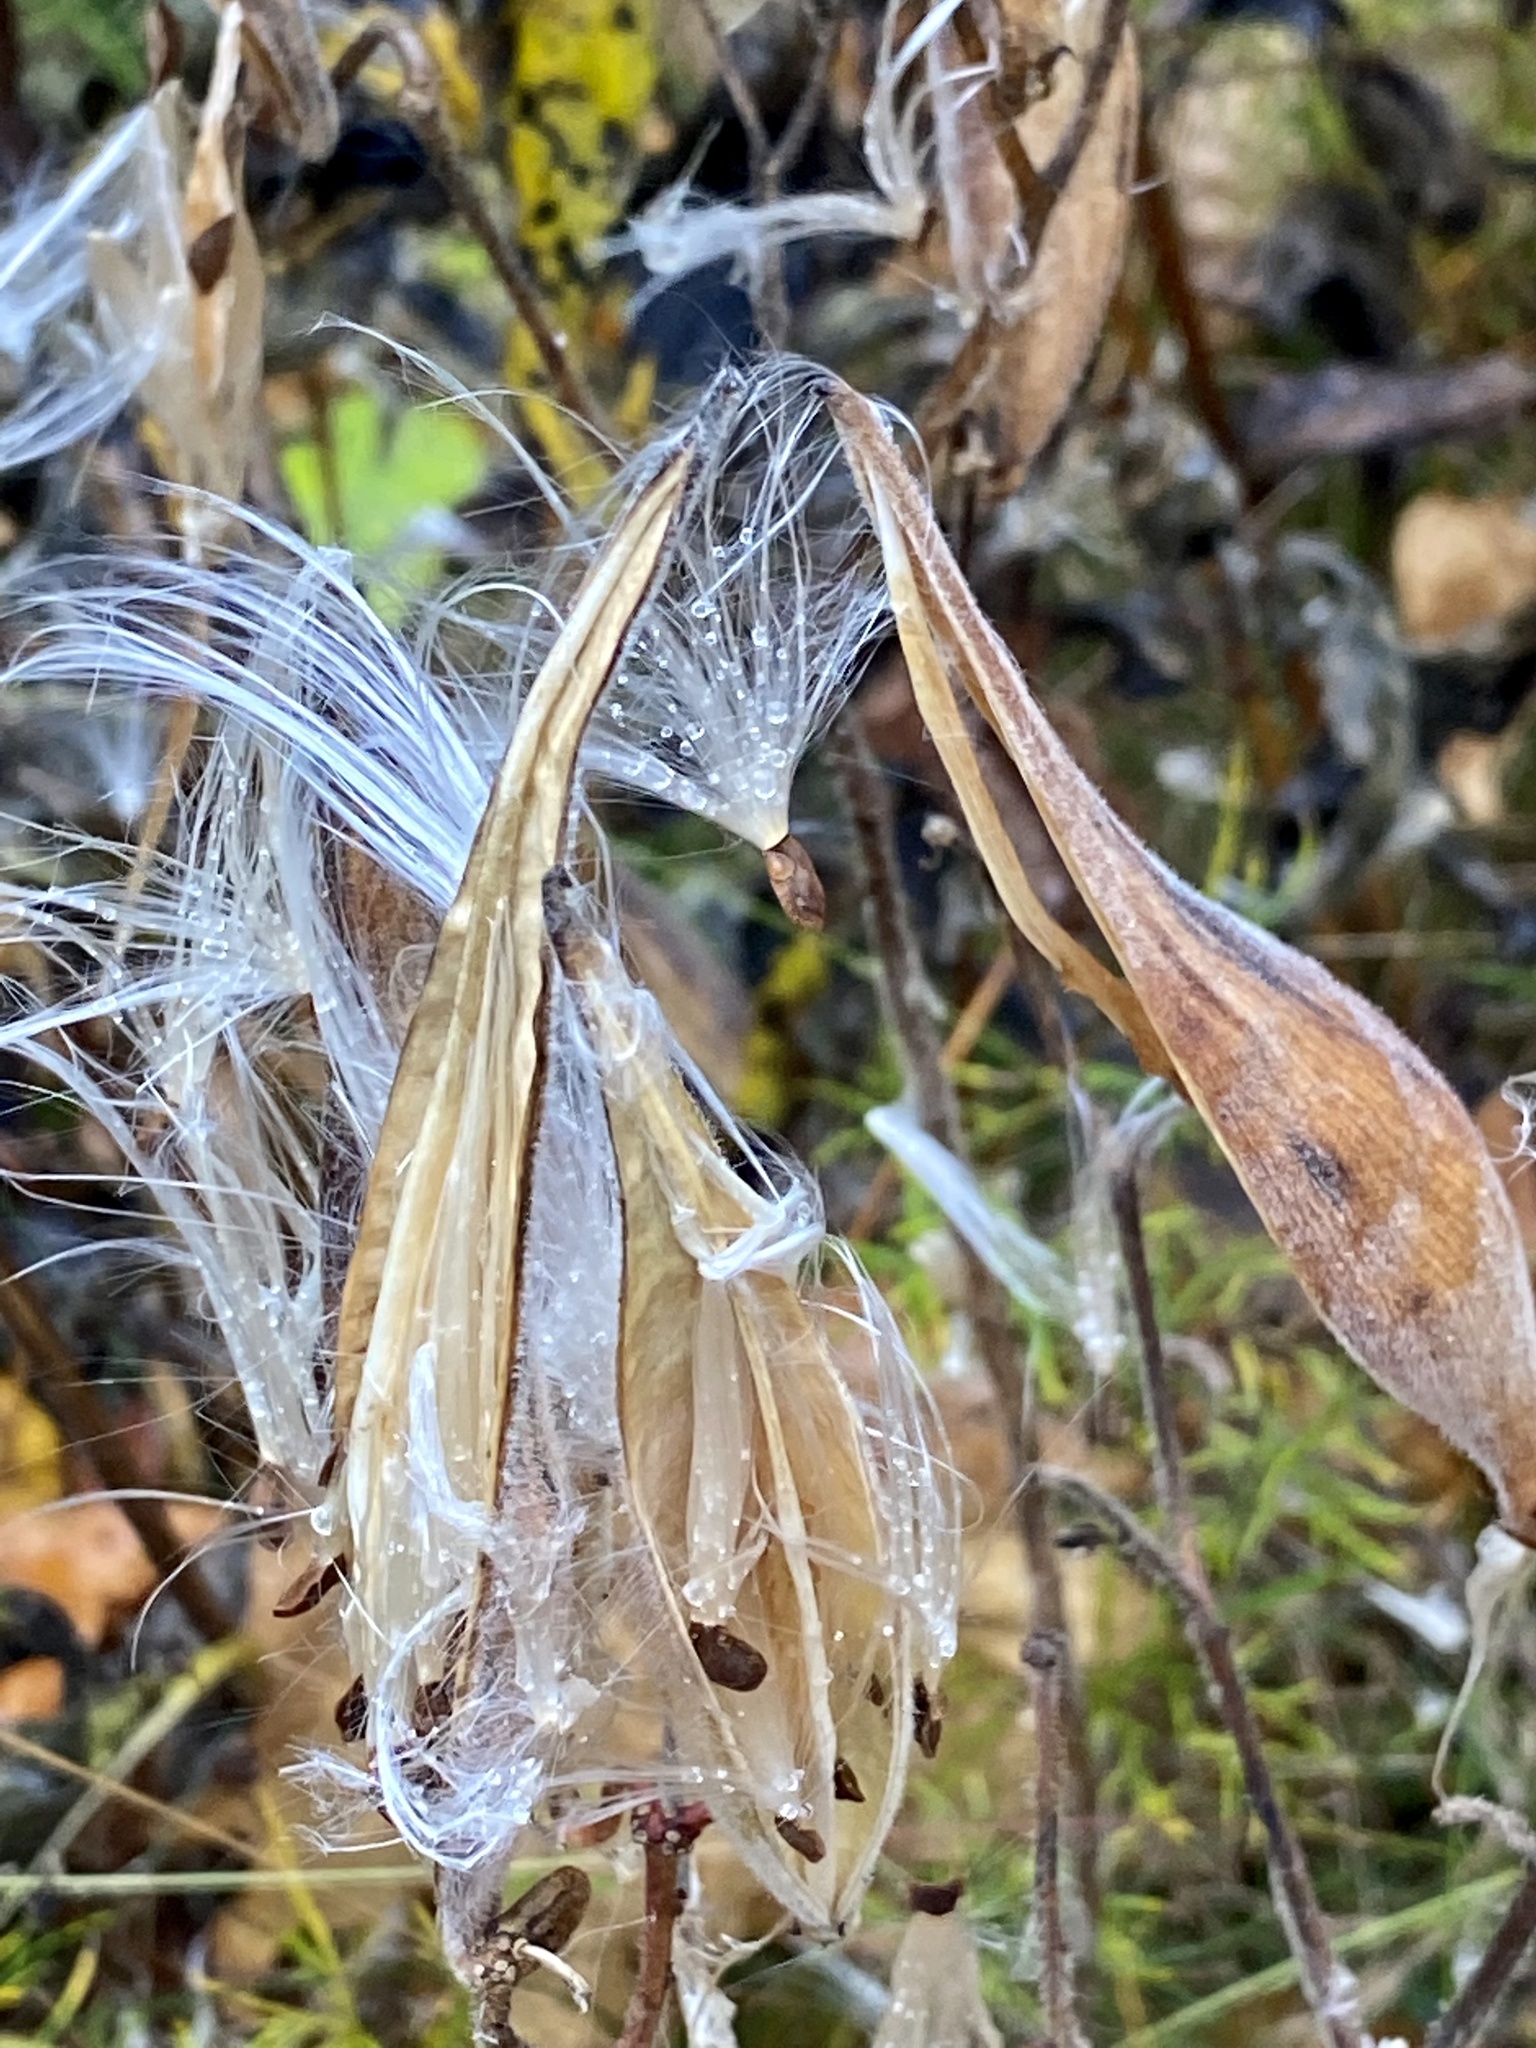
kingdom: Plantae
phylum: Tracheophyta
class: Magnoliopsida
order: Gentianales
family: Apocynaceae
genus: Asclepias
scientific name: Asclepias tuberosa
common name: Butterfly milkweed
